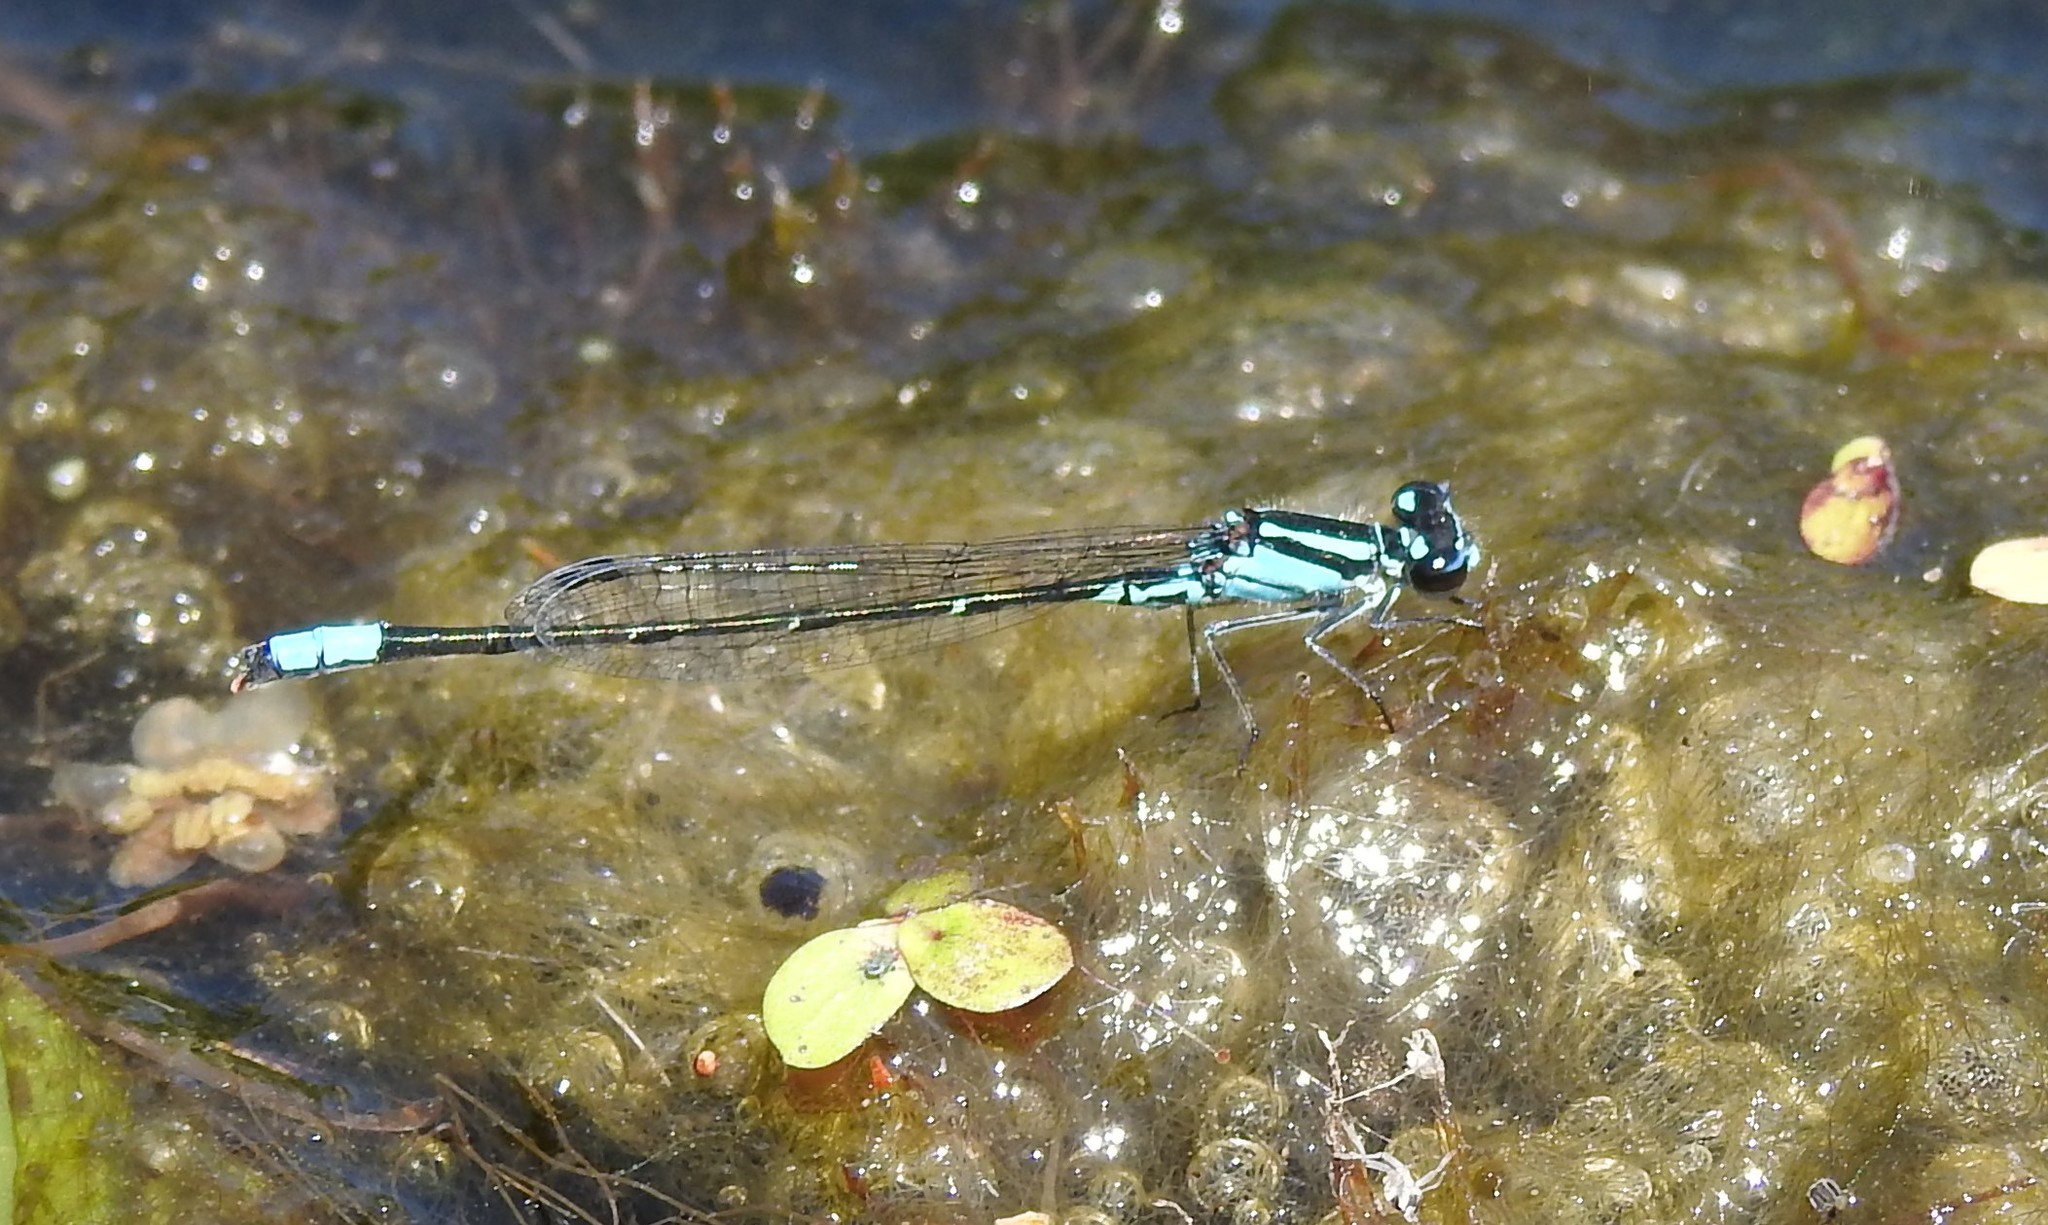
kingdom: Animalia
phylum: Arthropoda
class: Insecta
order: Odonata
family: Coenagrionidae
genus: Enallagma
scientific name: Enallagma geminatum
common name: Skimming bluet
